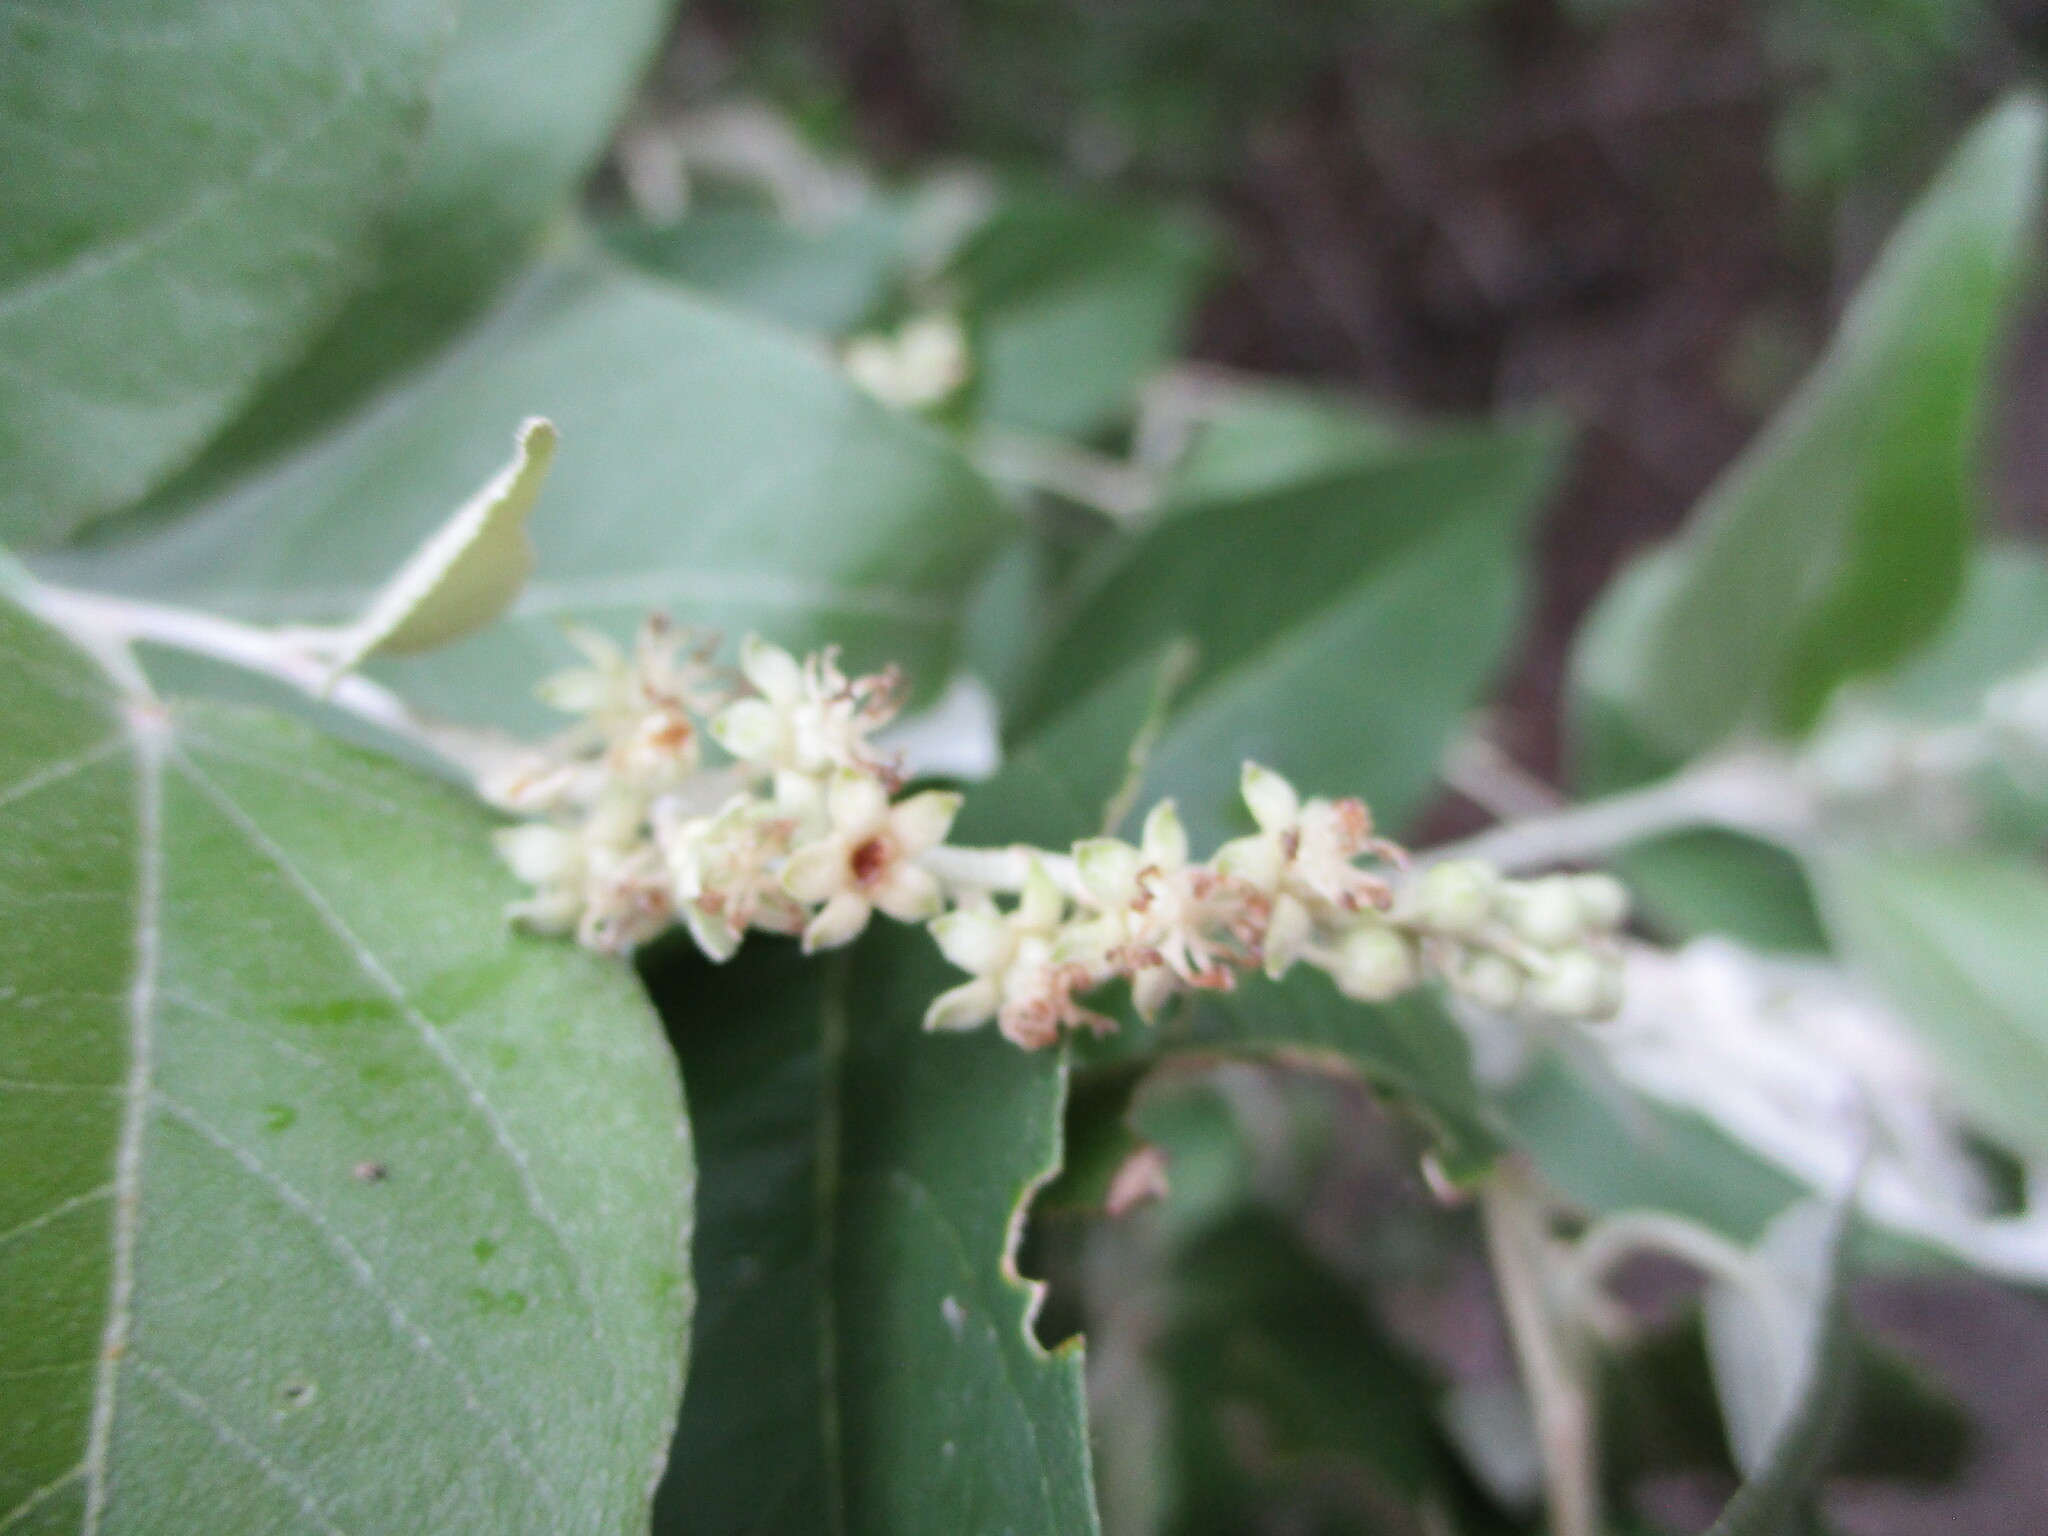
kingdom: Plantae
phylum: Tracheophyta
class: Magnoliopsida
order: Malpighiales
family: Euphorbiaceae
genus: Croton
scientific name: Croton watsonii
